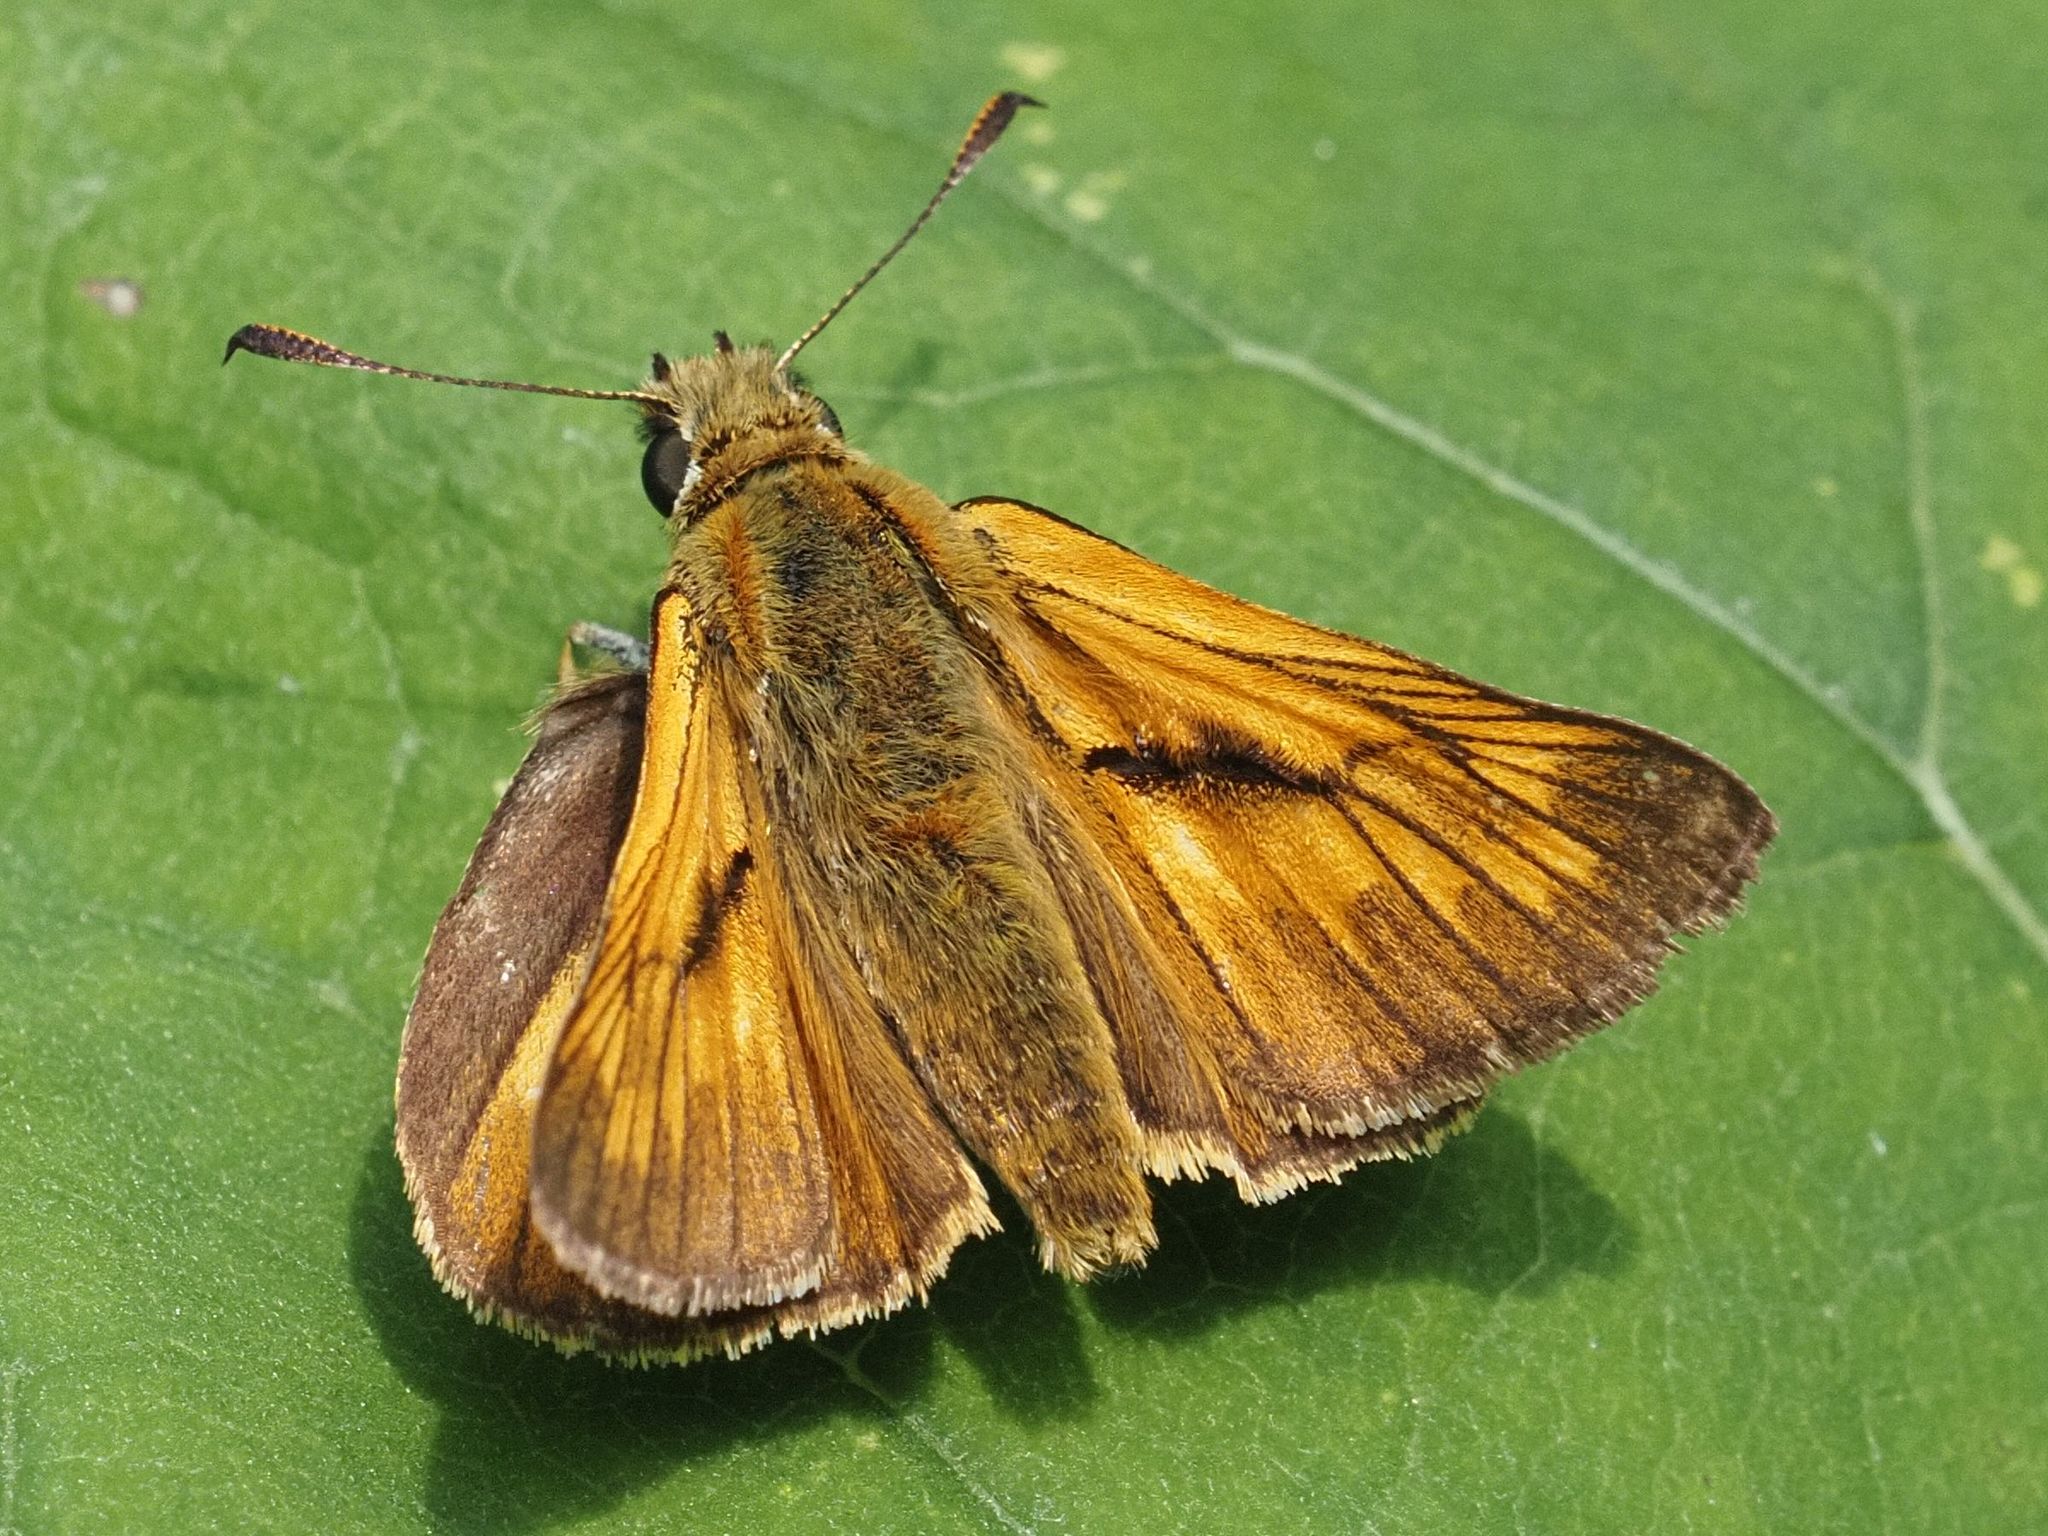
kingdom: Animalia
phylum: Arthropoda
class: Insecta
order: Lepidoptera
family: Hesperiidae
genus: Ochlodes
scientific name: Ochlodes venata
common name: Large skipper
